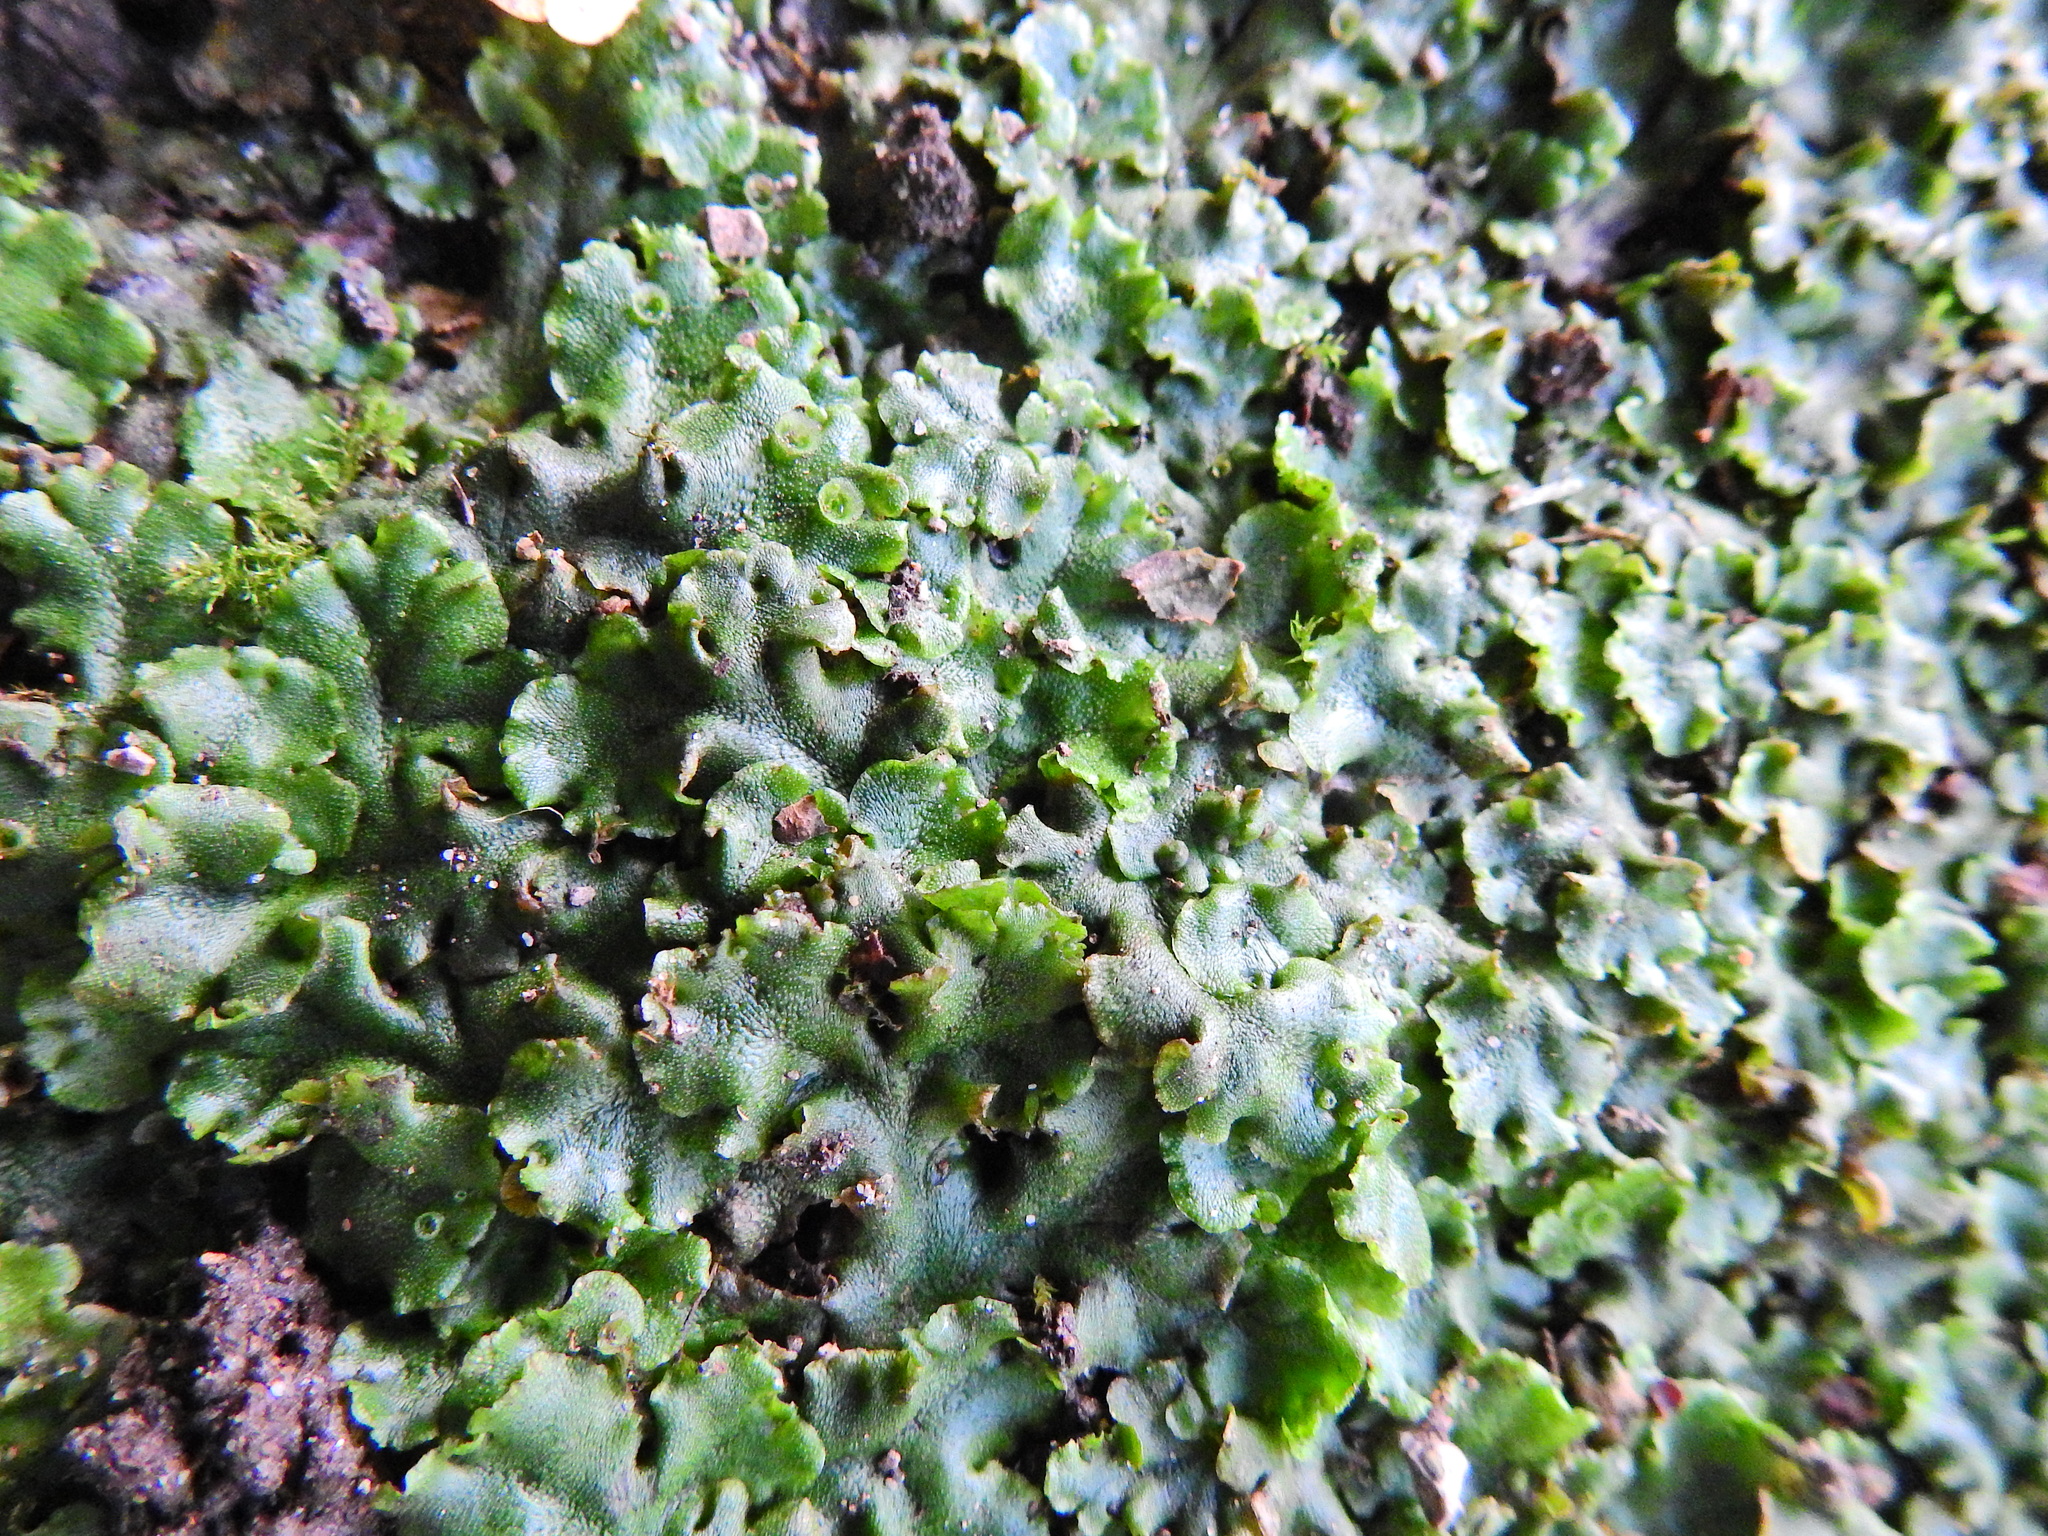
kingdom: Plantae
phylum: Marchantiophyta
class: Marchantiopsida
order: Marchantiales
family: Marchantiaceae
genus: Marchantia
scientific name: Marchantia polymorpha
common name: Common liverwort
